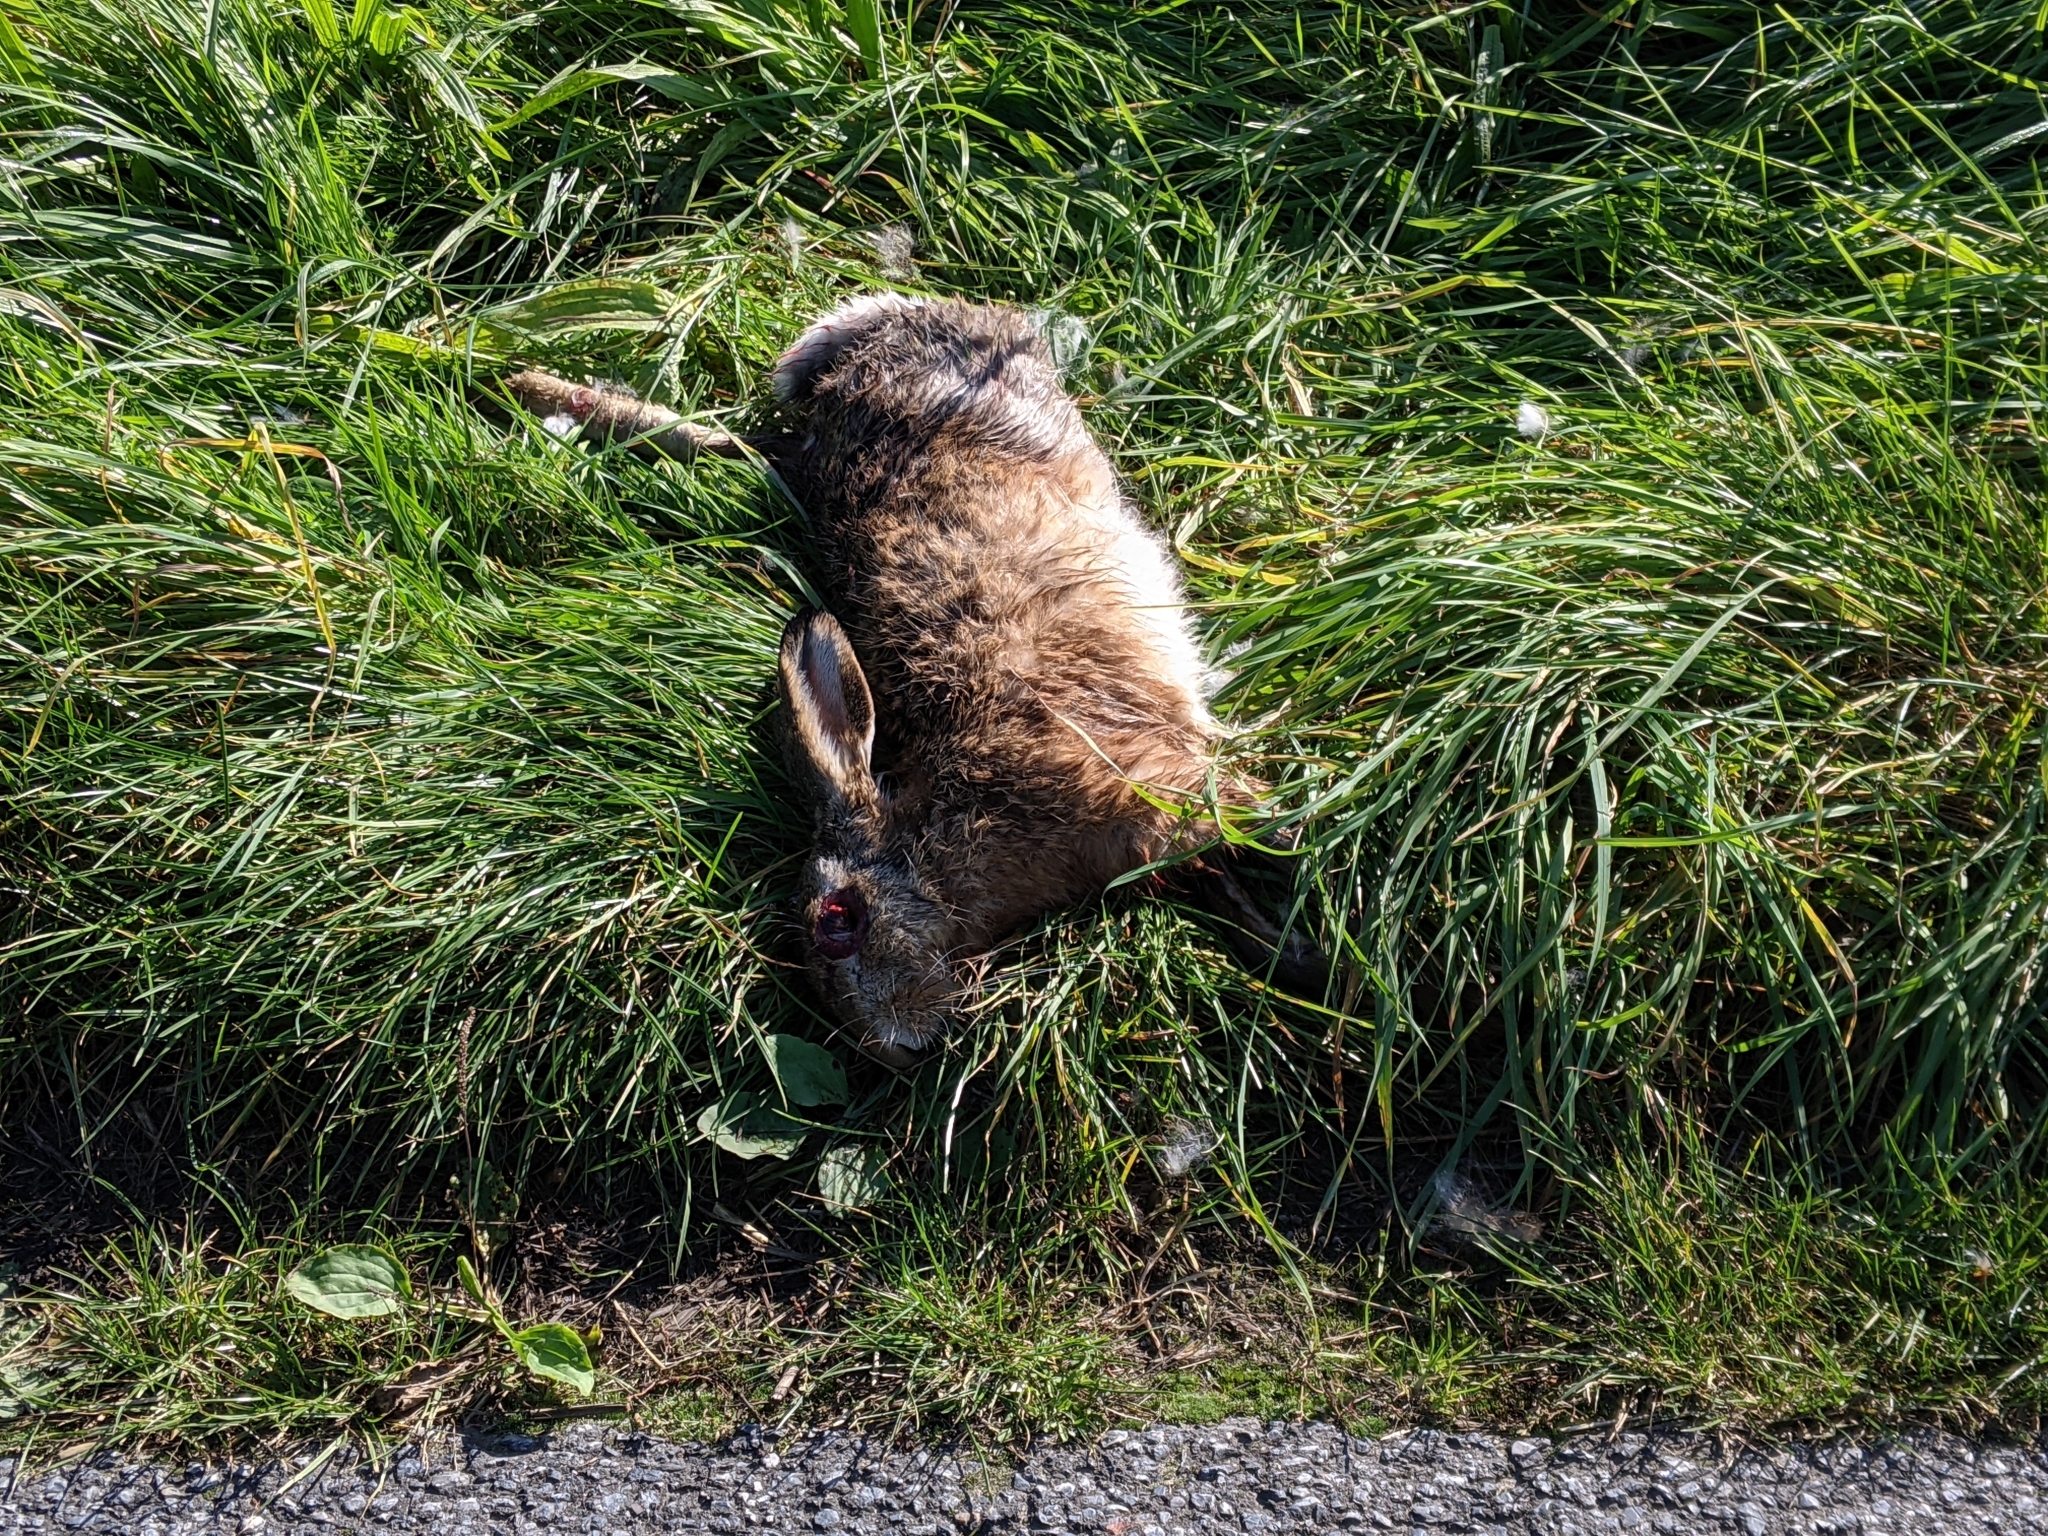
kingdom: Animalia
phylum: Chordata
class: Mammalia
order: Lagomorpha
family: Leporidae
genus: Lepus
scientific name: Lepus europaeus
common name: European hare
